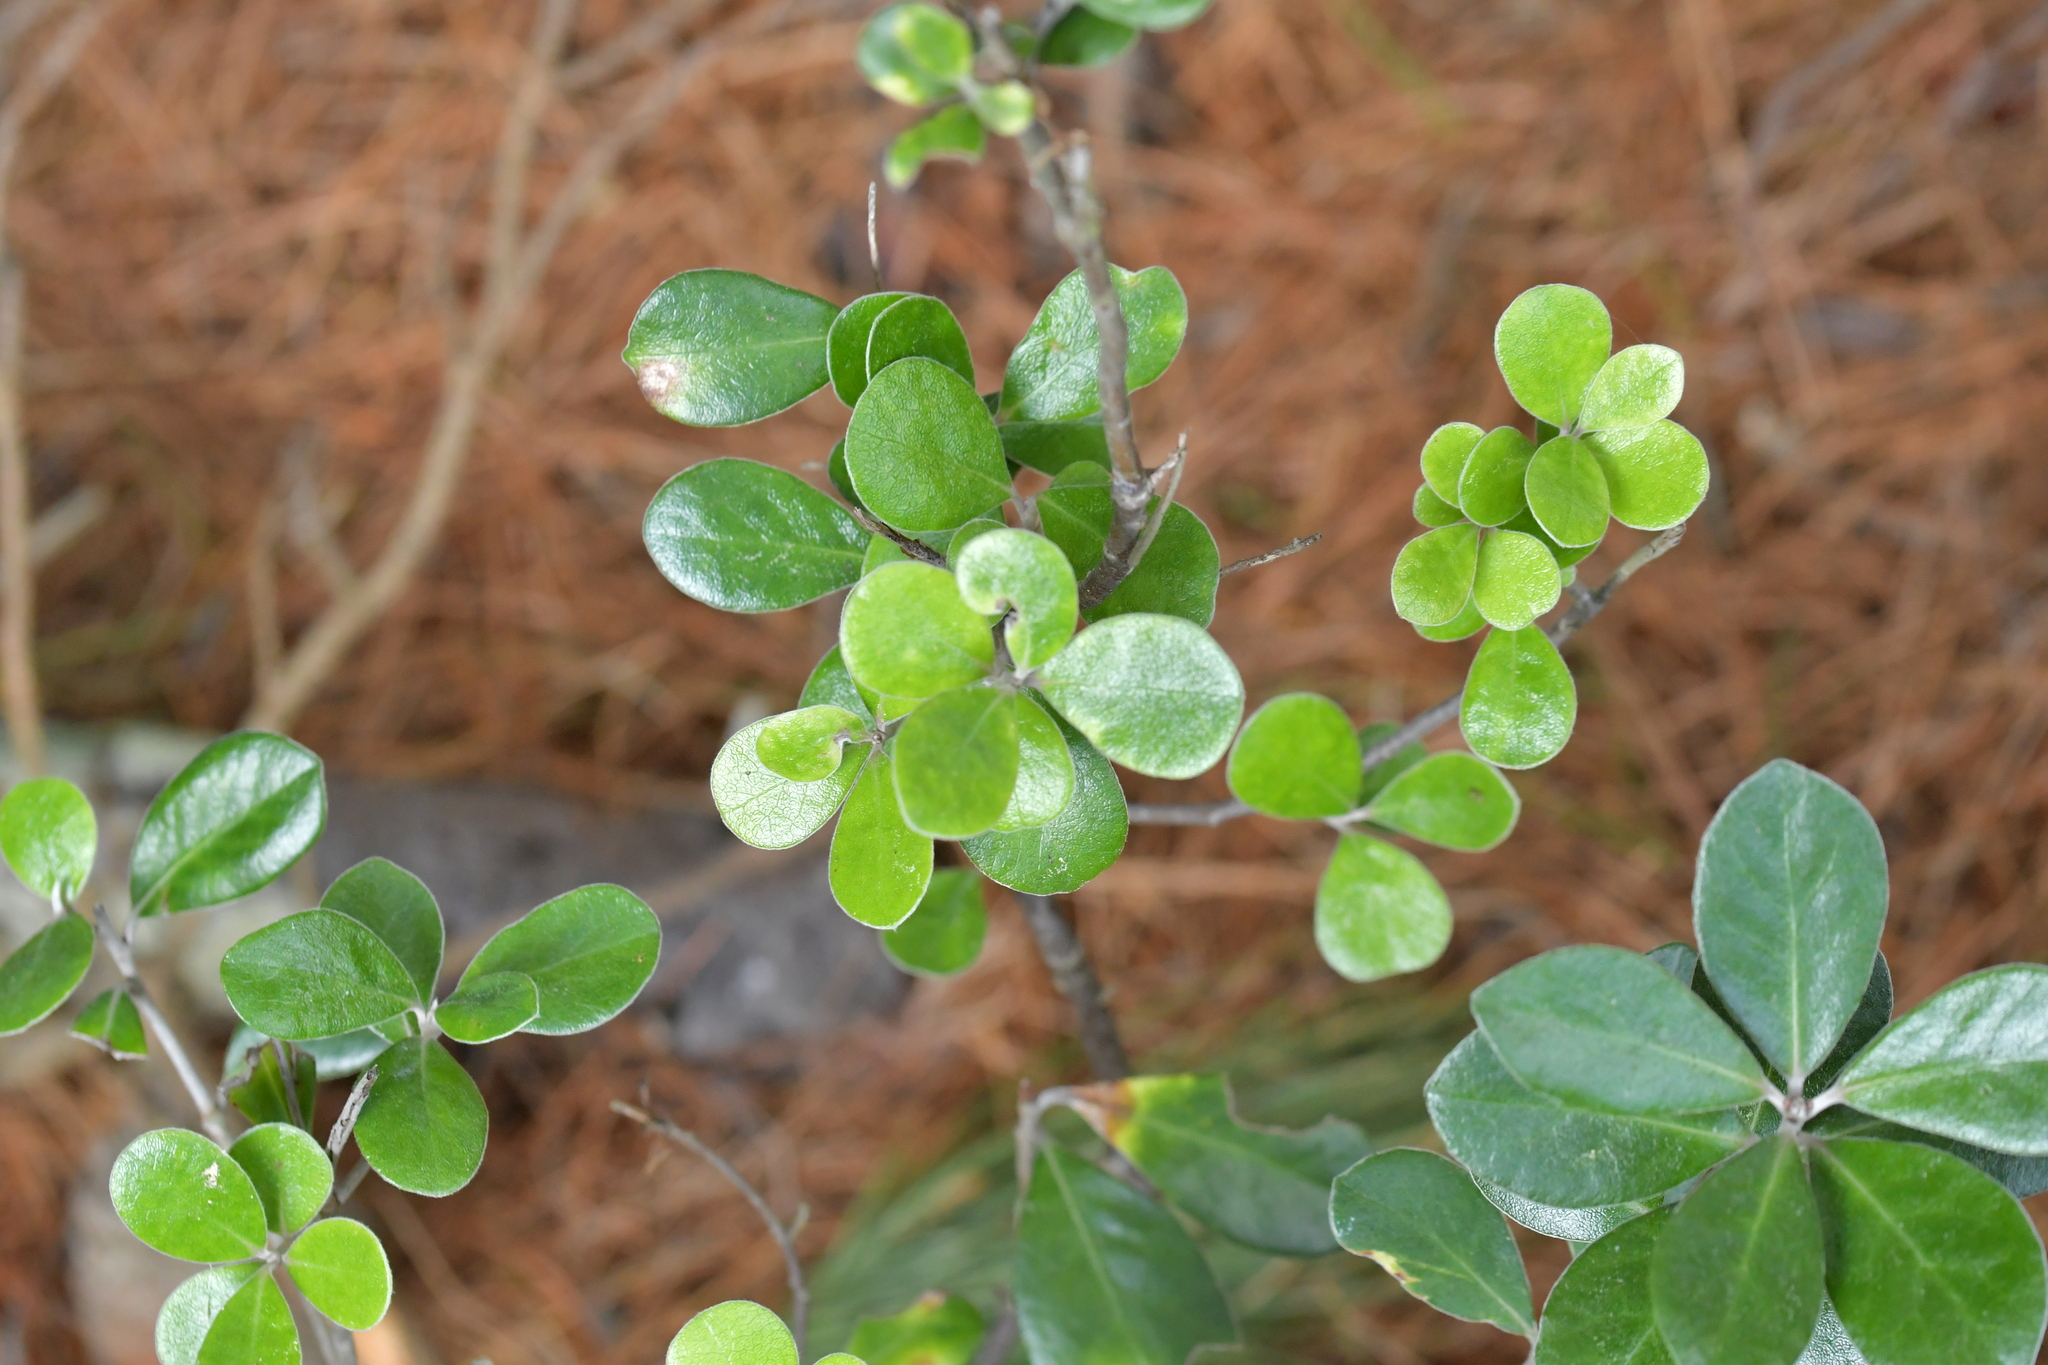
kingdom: Plantae
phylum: Tracheophyta
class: Magnoliopsida
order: Apiales
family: Pittosporaceae
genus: Pittosporum
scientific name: Pittosporum crassifolium
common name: Karo
